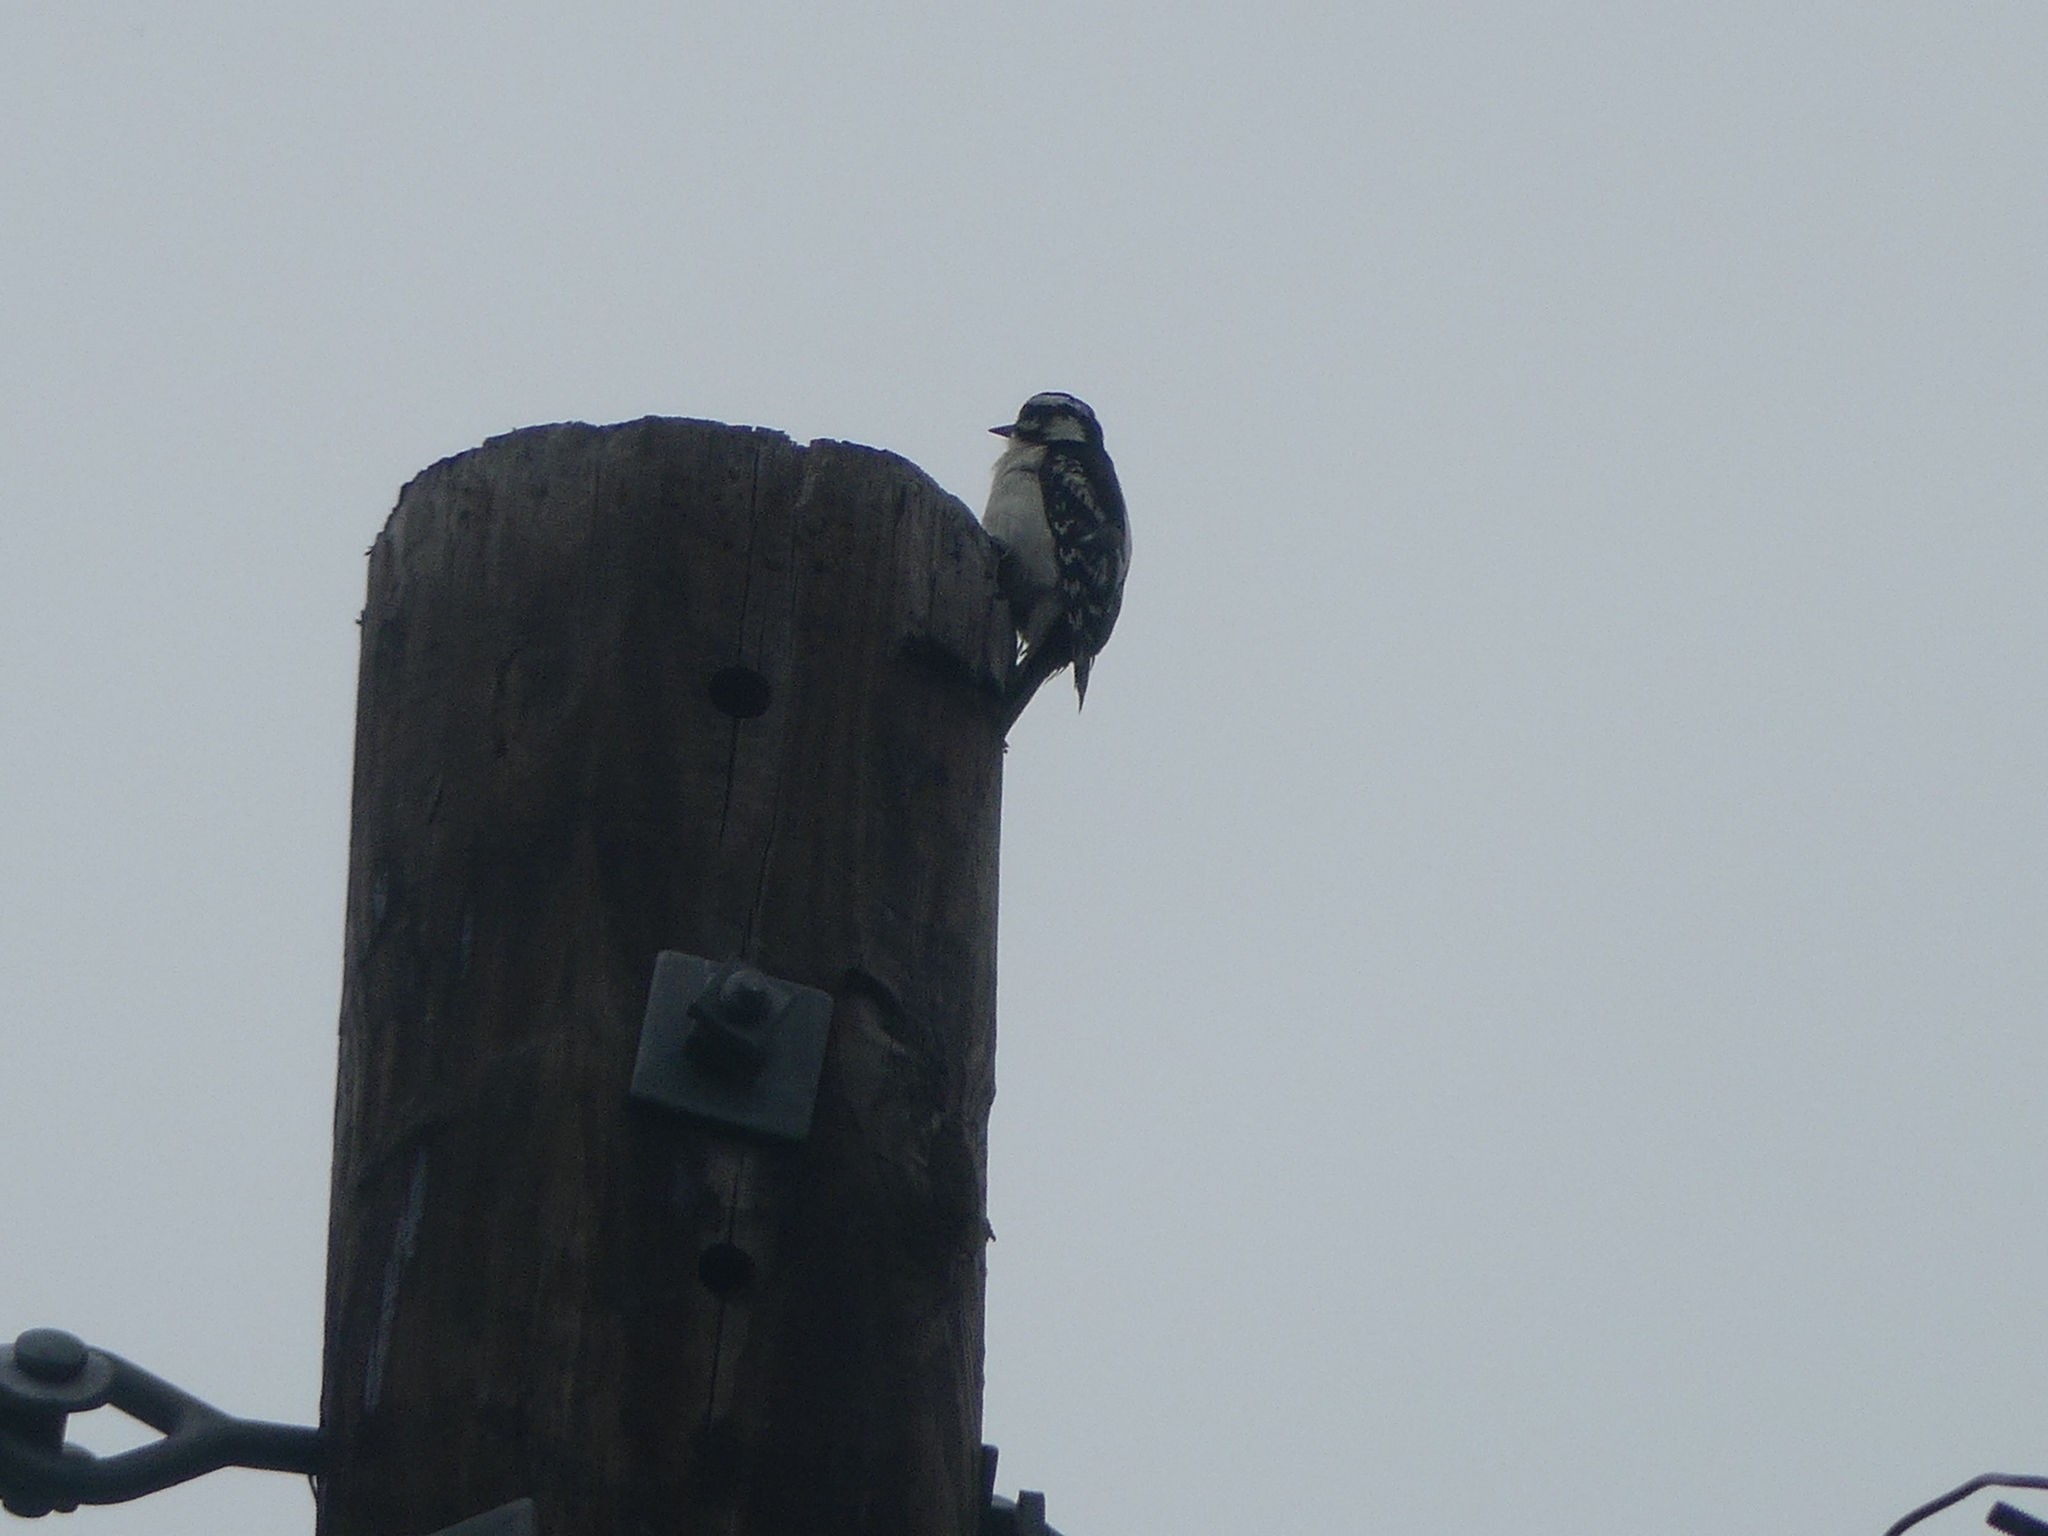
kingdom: Animalia
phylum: Chordata
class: Aves
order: Piciformes
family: Picidae
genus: Dryobates
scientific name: Dryobates pubescens
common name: Downy woodpecker
